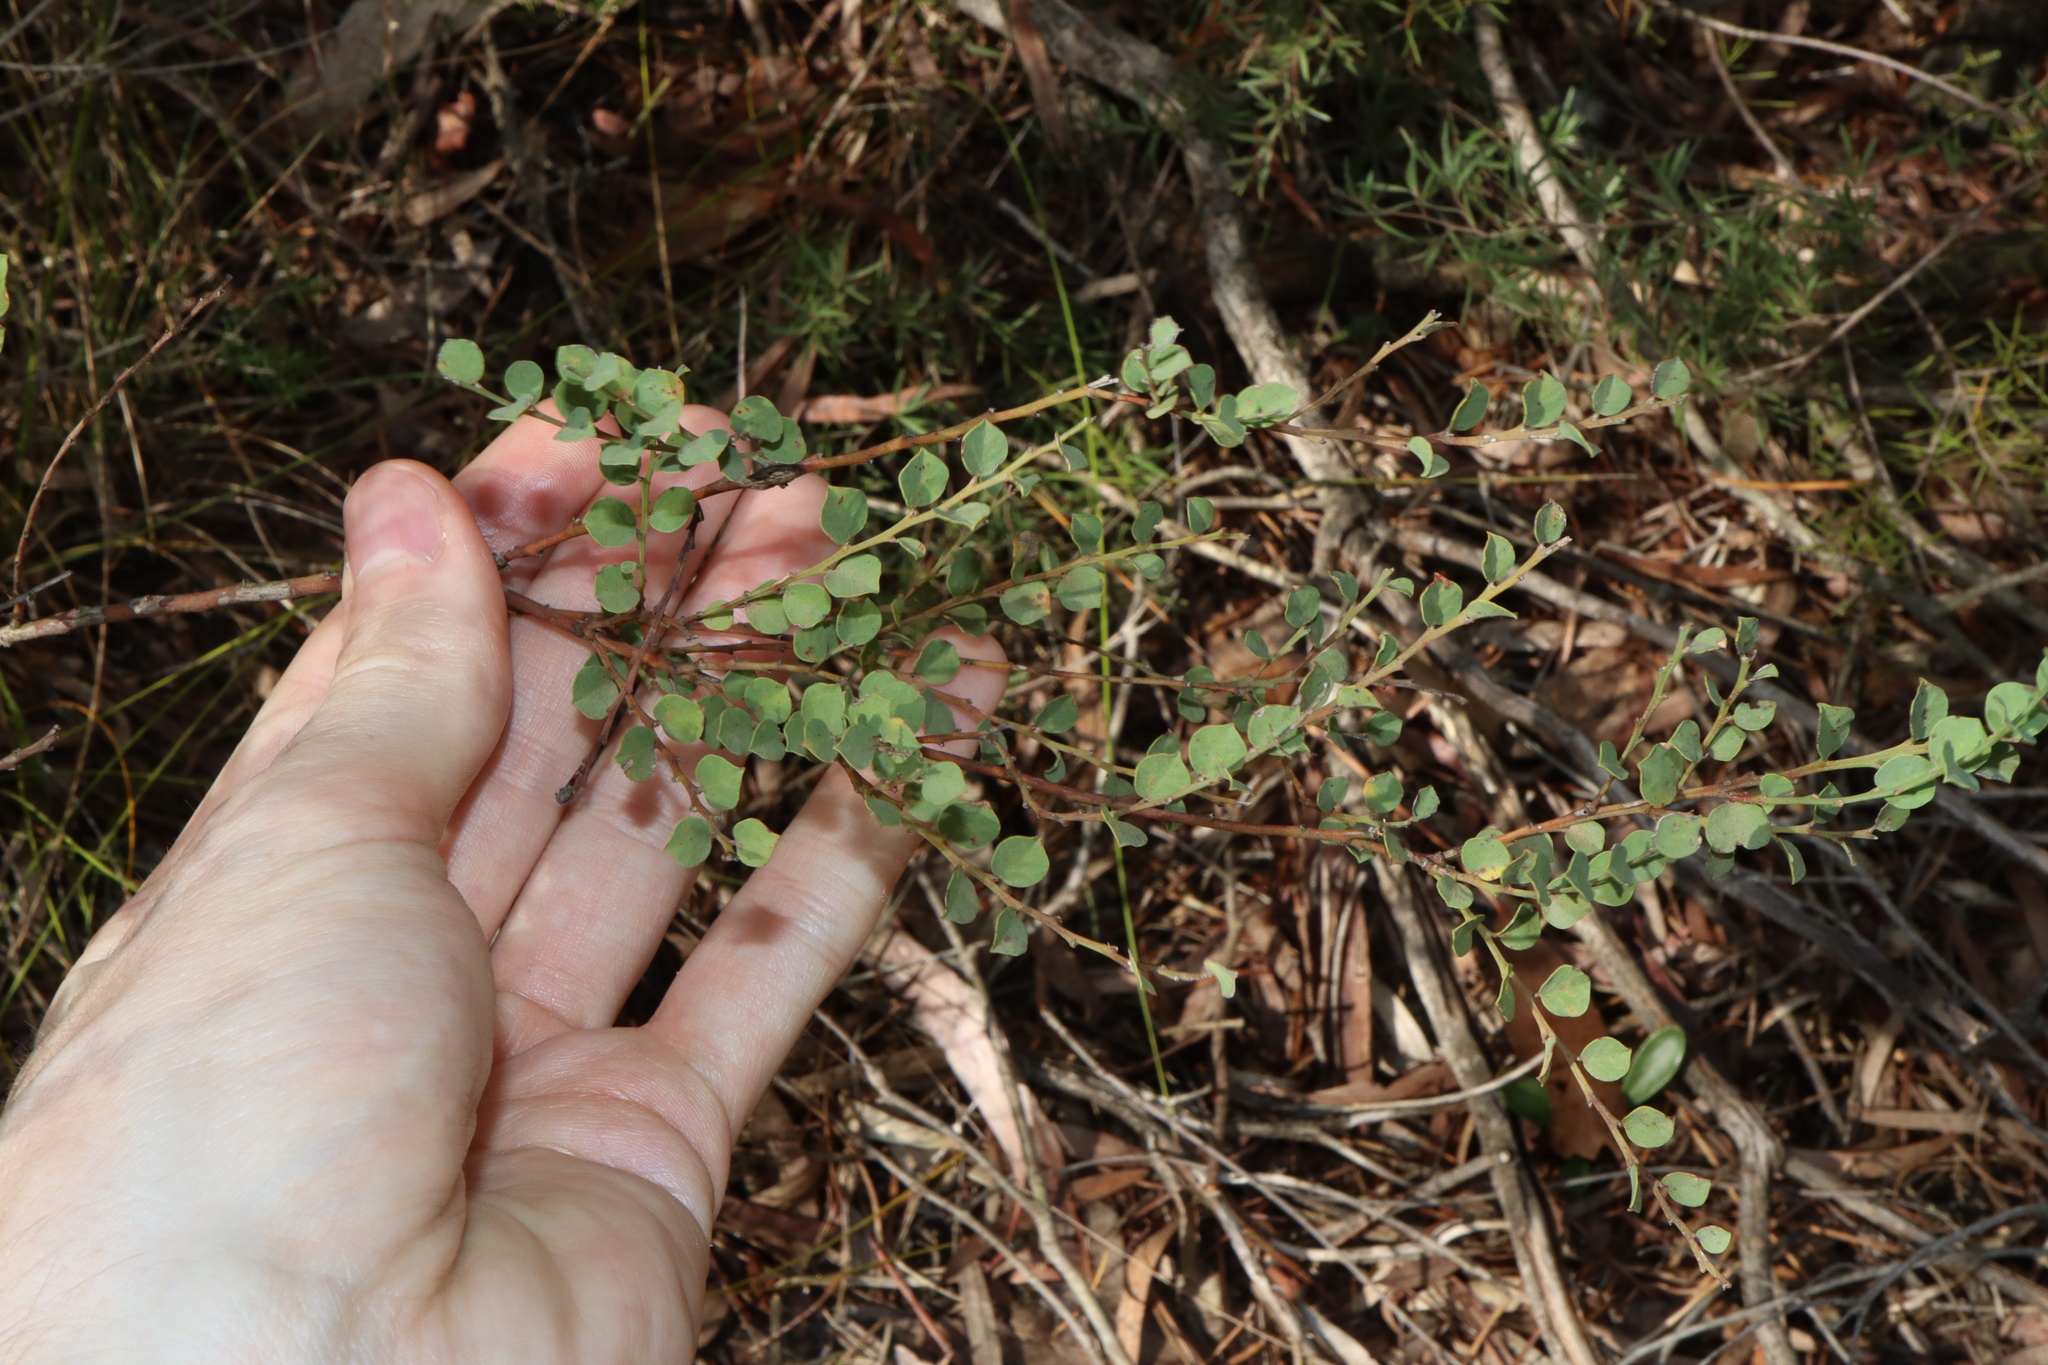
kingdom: Plantae
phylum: Tracheophyta
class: Magnoliopsida
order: Fabales
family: Fabaceae
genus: Bossiaea
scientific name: Bossiaea rhombifolia
